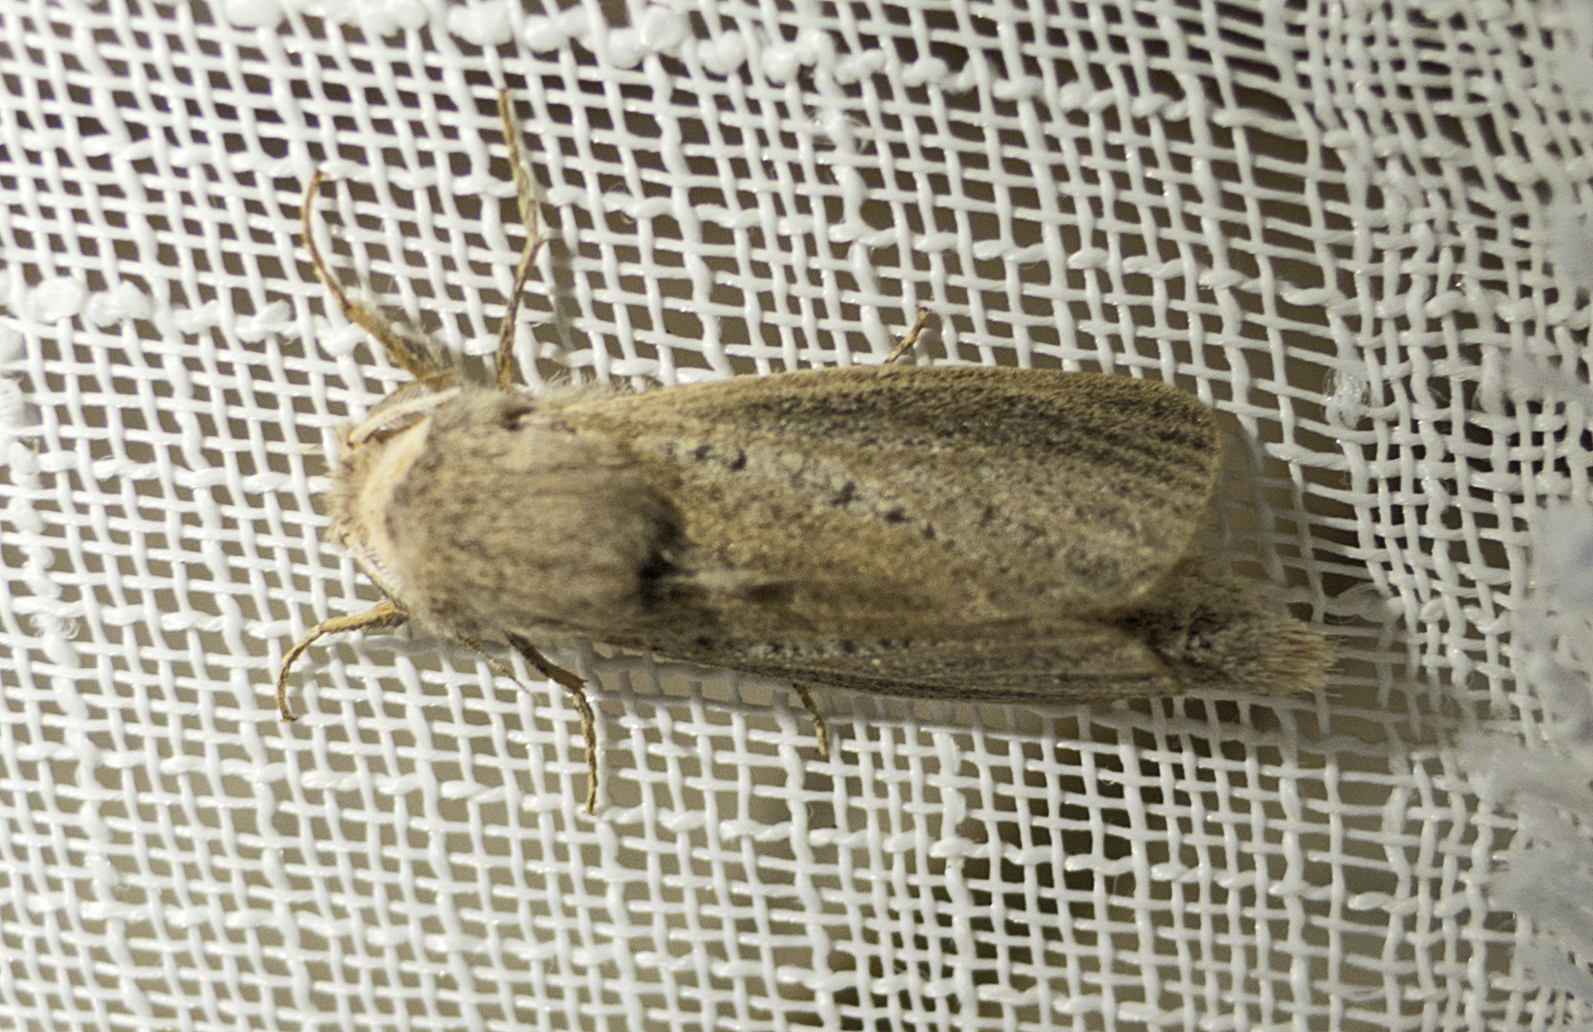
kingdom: Animalia
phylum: Arthropoda
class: Insecta
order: Lepidoptera
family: Cossidae
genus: Phragmataecia
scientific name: Phragmataecia castaneae
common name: Reed leopard
